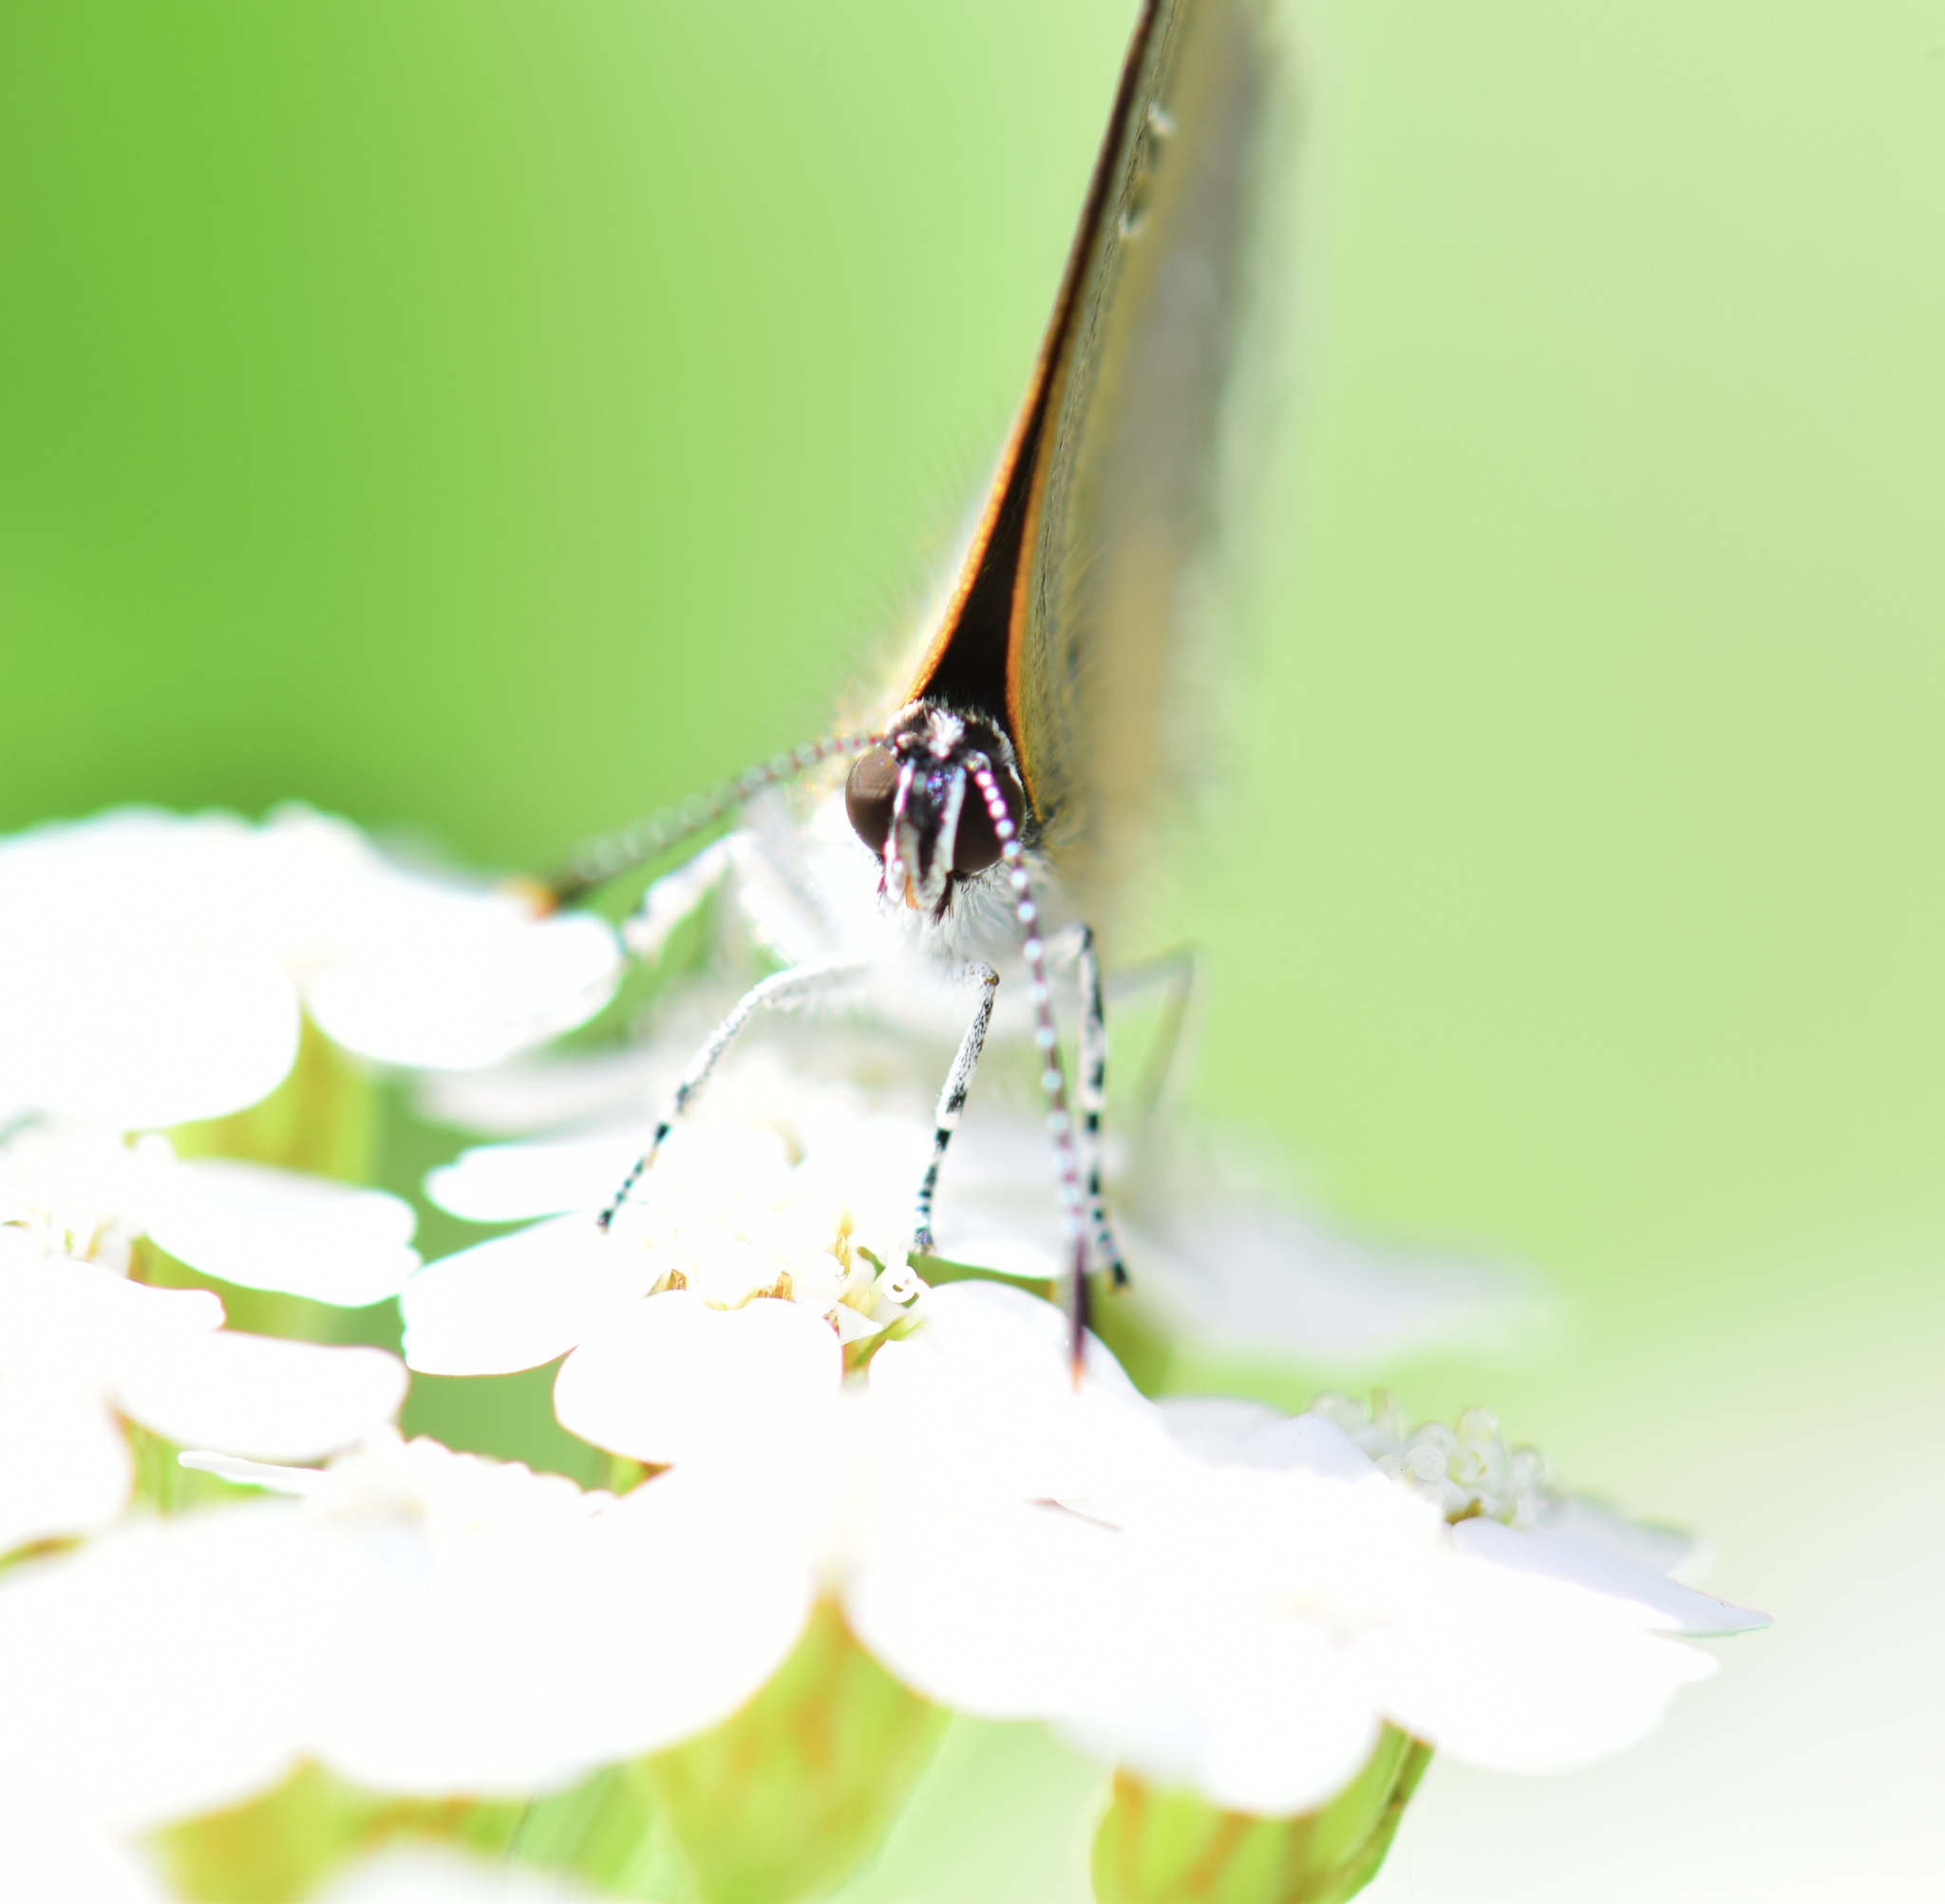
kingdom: Animalia
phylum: Arthropoda
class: Insecta
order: Lepidoptera
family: Lycaenidae
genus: Satyrium
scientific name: Satyrium calanus
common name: Banded hairstreak
